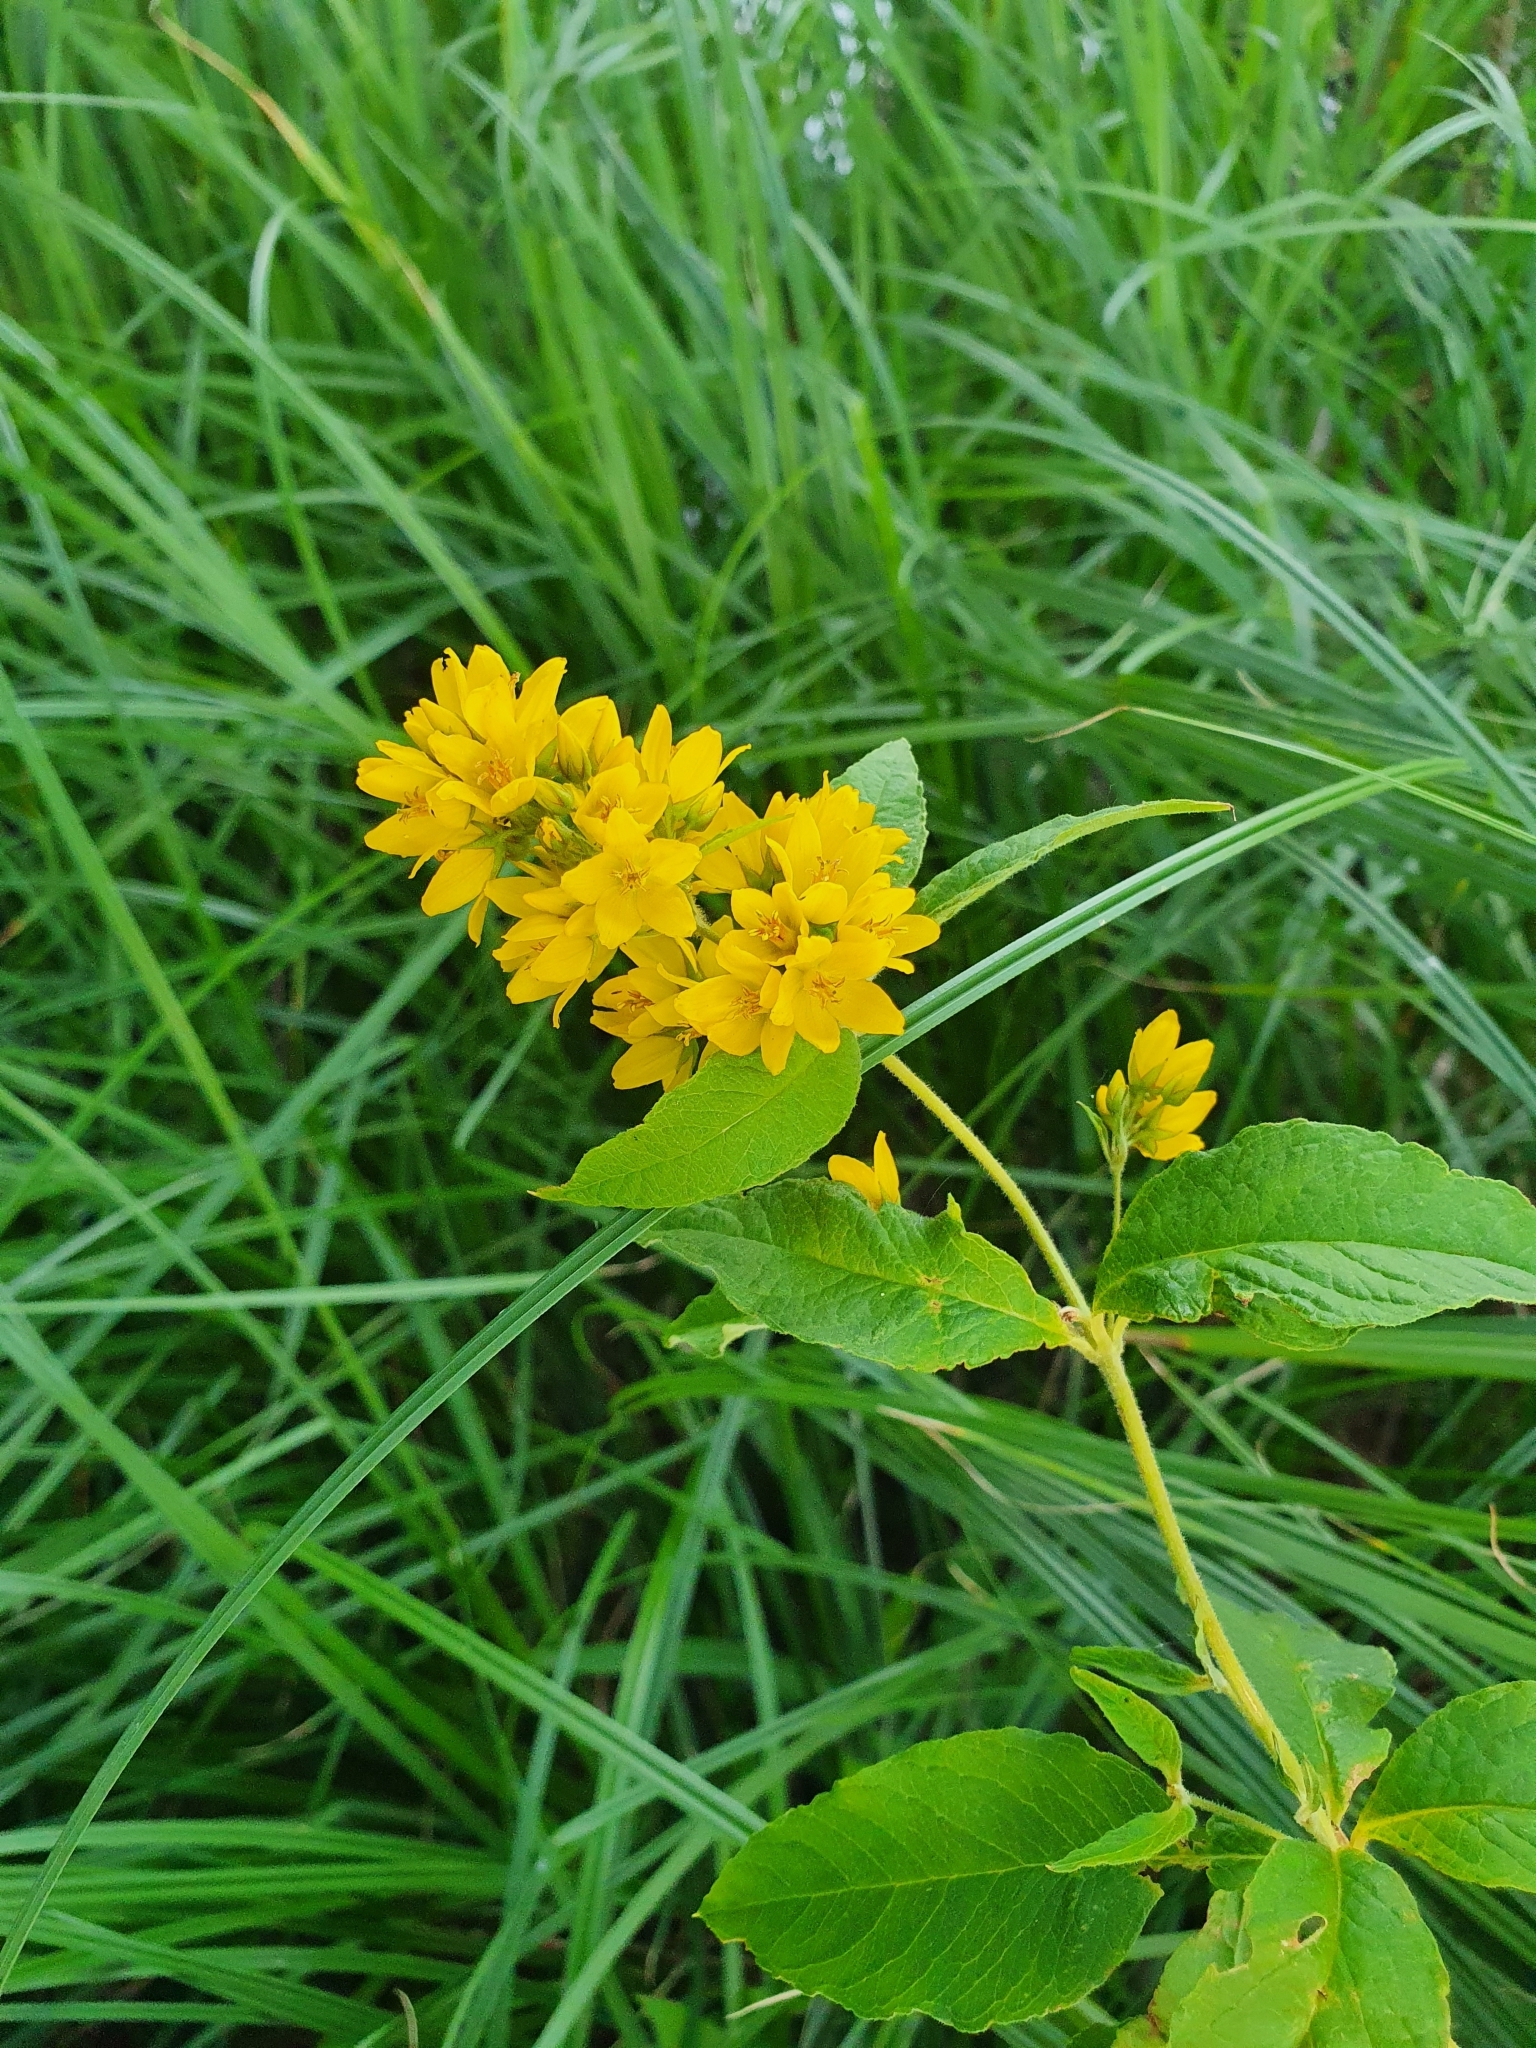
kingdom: Plantae
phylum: Tracheophyta
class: Magnoliopsida
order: Ericales
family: Primulaceae
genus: Lysimachia
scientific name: Lysimachia vulgaris
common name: Yellow loosestrife
